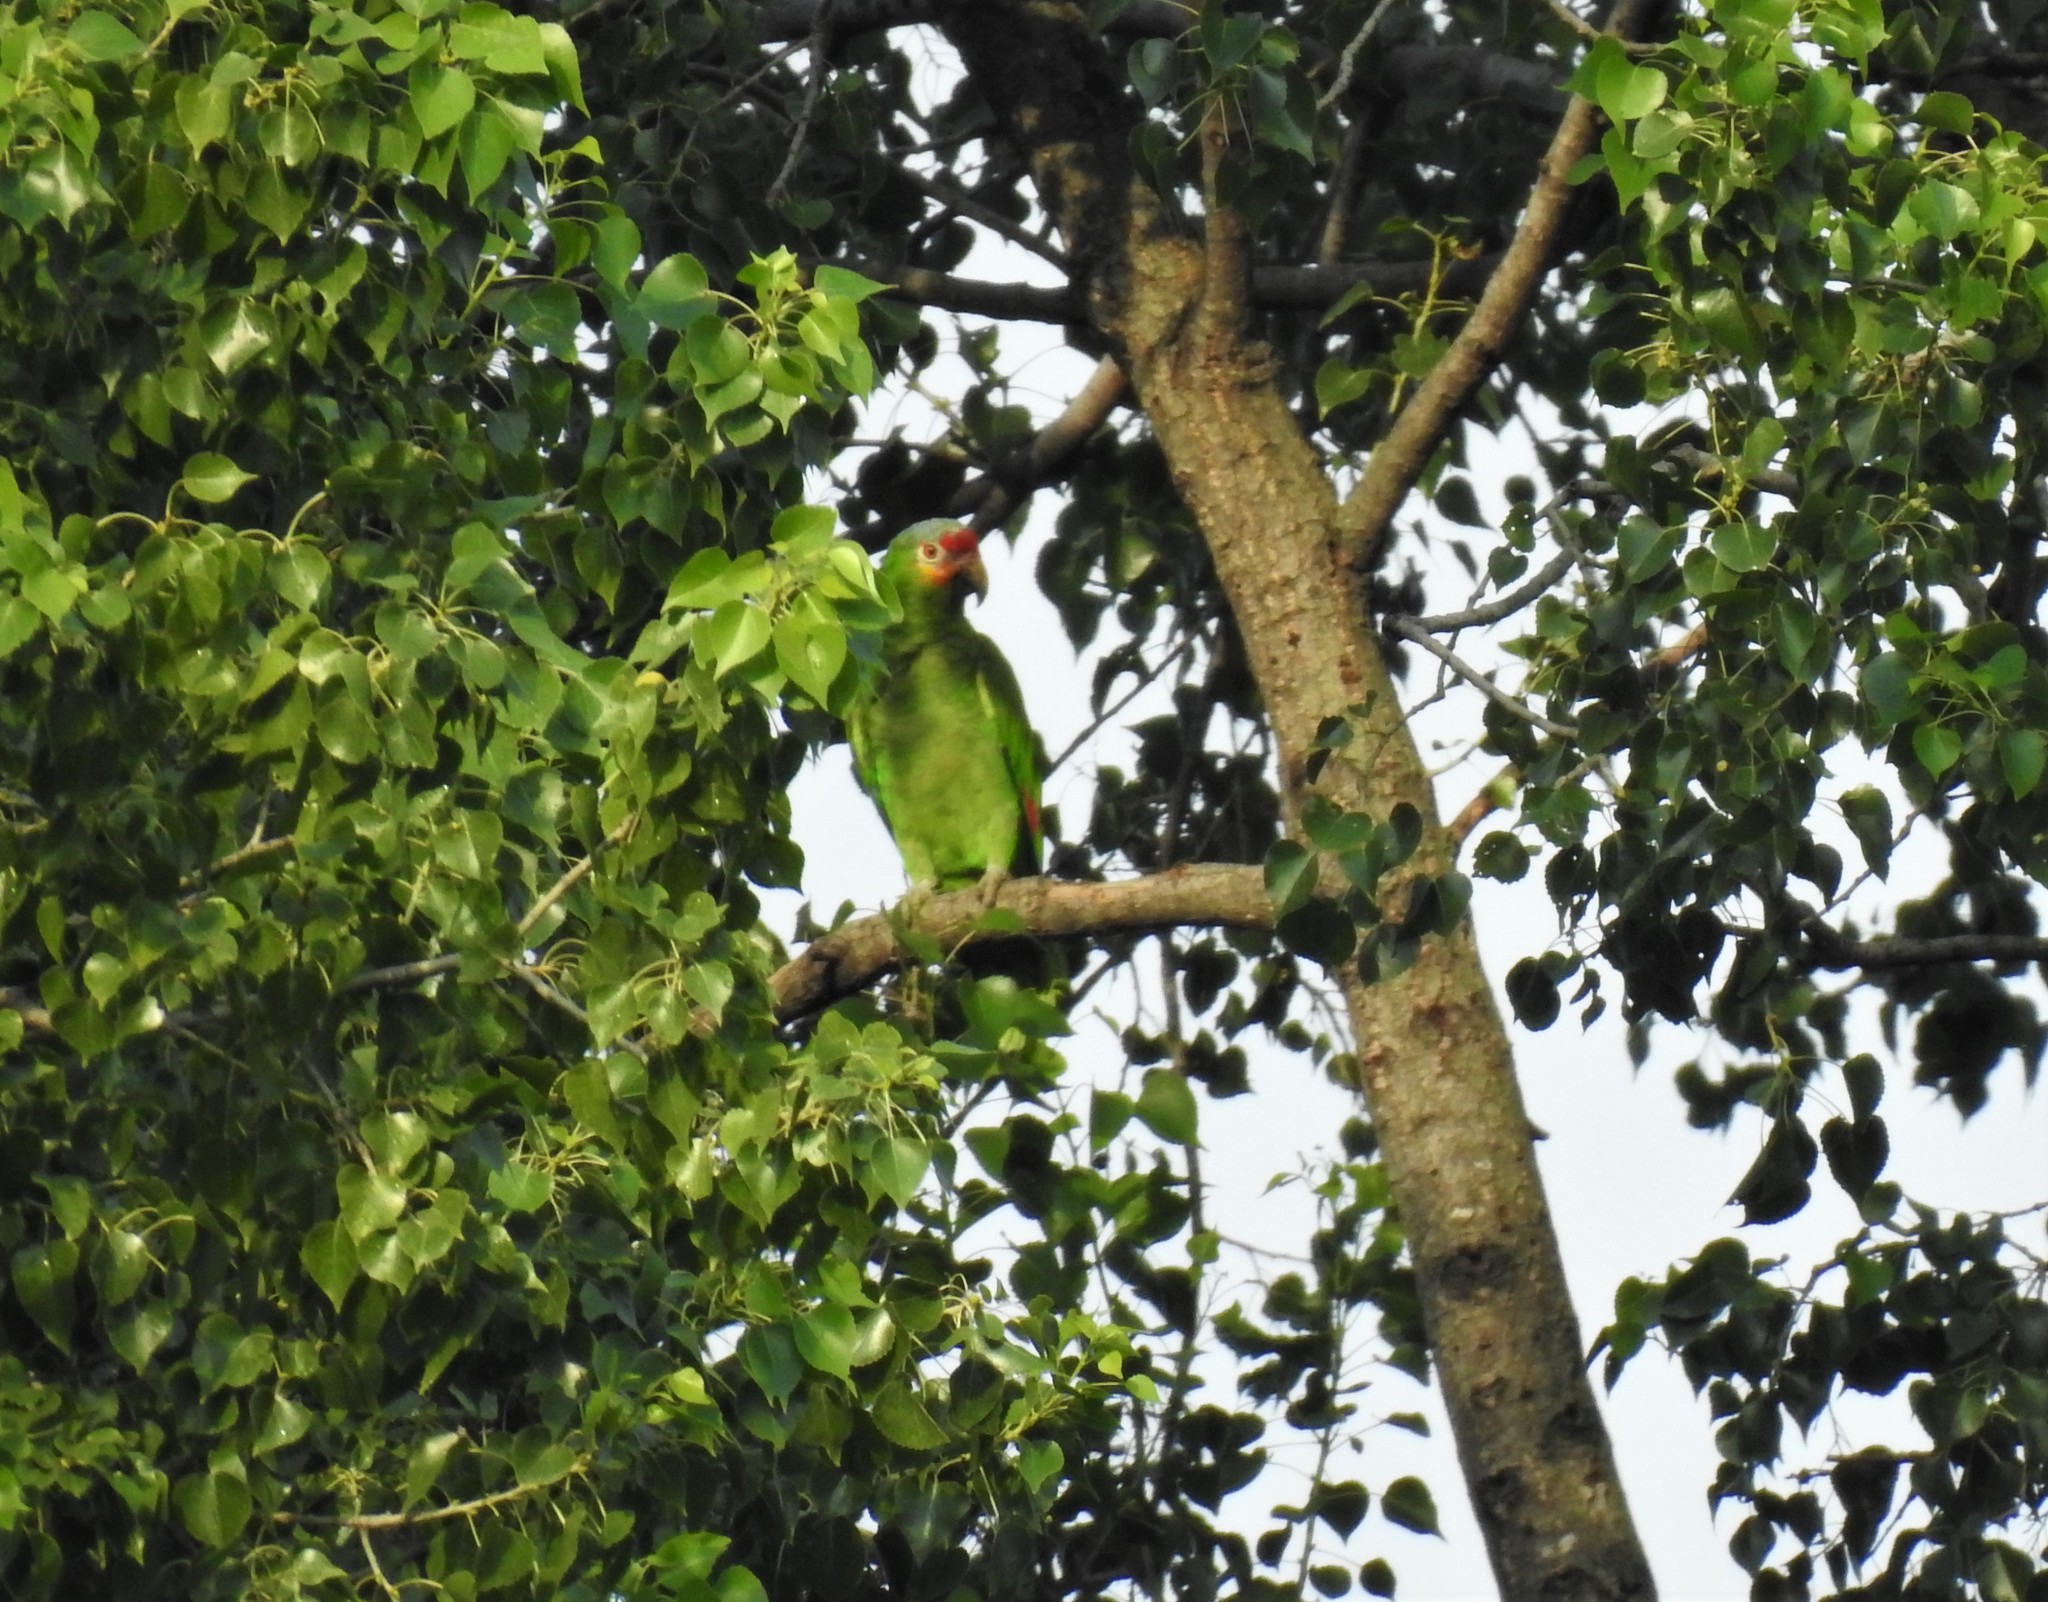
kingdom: Animalia
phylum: Chordata
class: Aves
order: Psittaciformes
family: Psittacidae
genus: Amazona
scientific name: Amazona autumnalis
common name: Red-lored amazon
